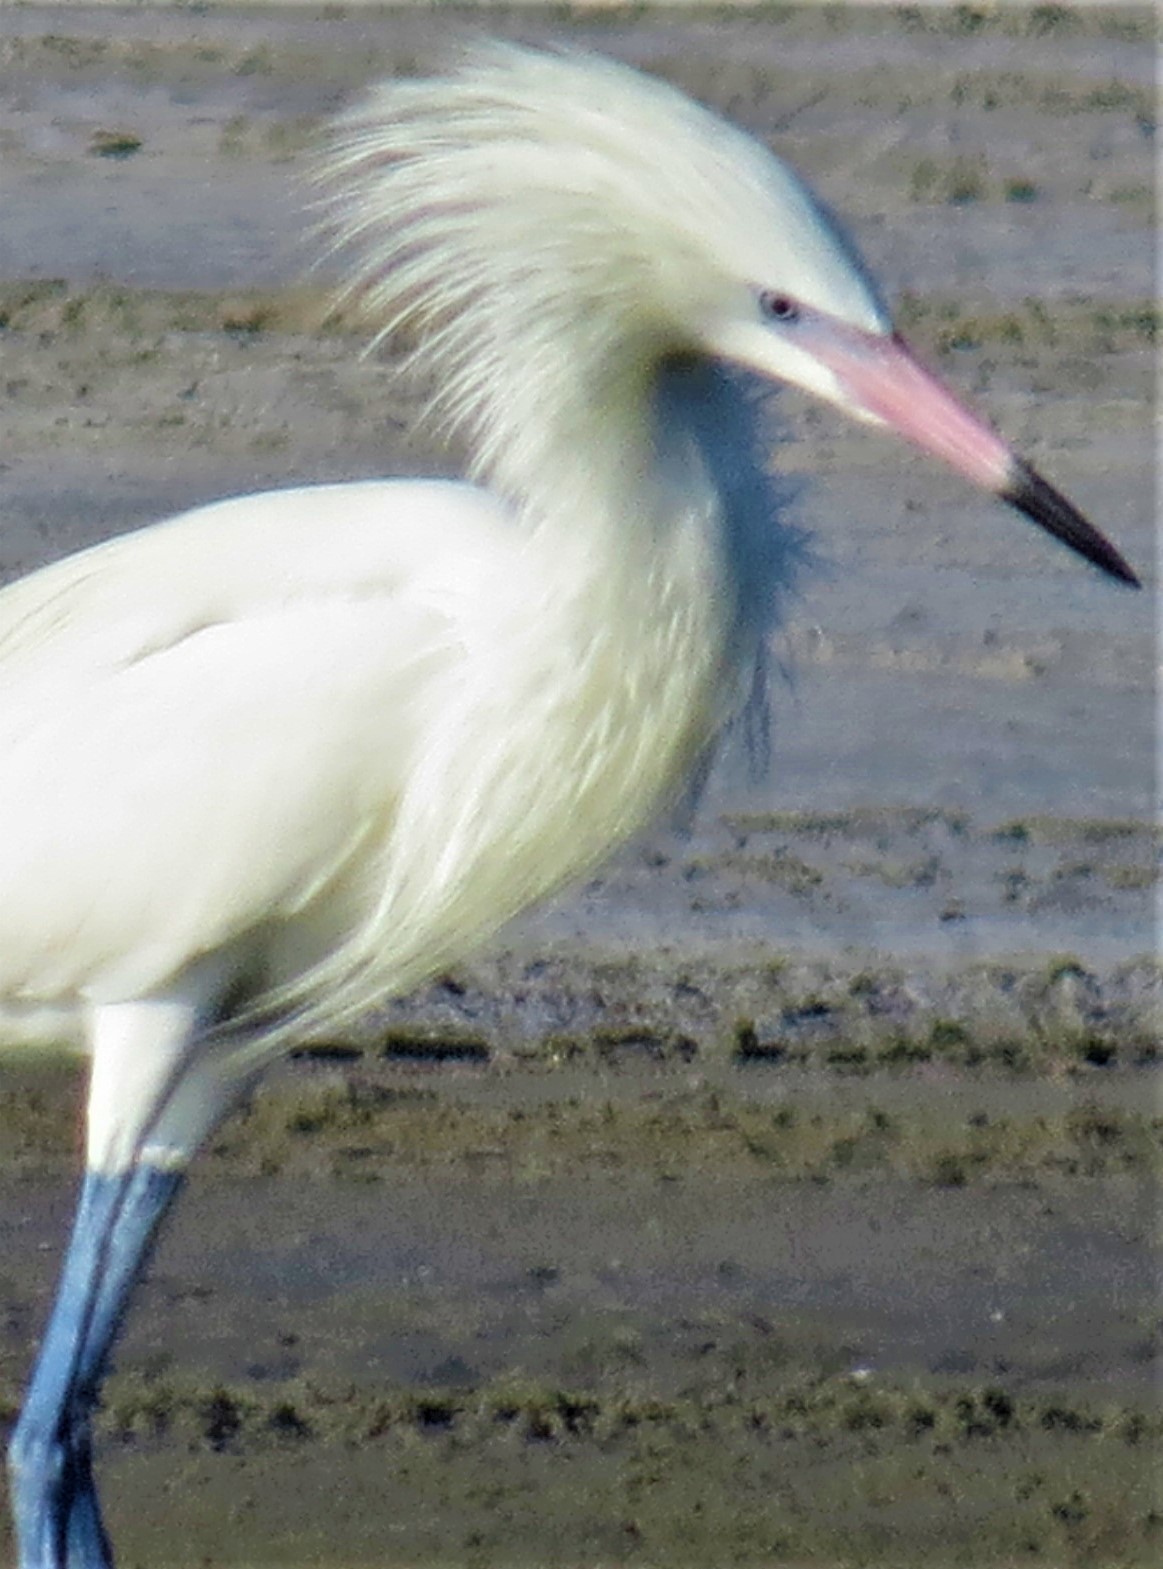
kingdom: Animalia
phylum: Chordata
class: Aves
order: Pelecaniformes
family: Ardeidae
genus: Egretta
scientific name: Egretta rufescens
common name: Reddish egret
